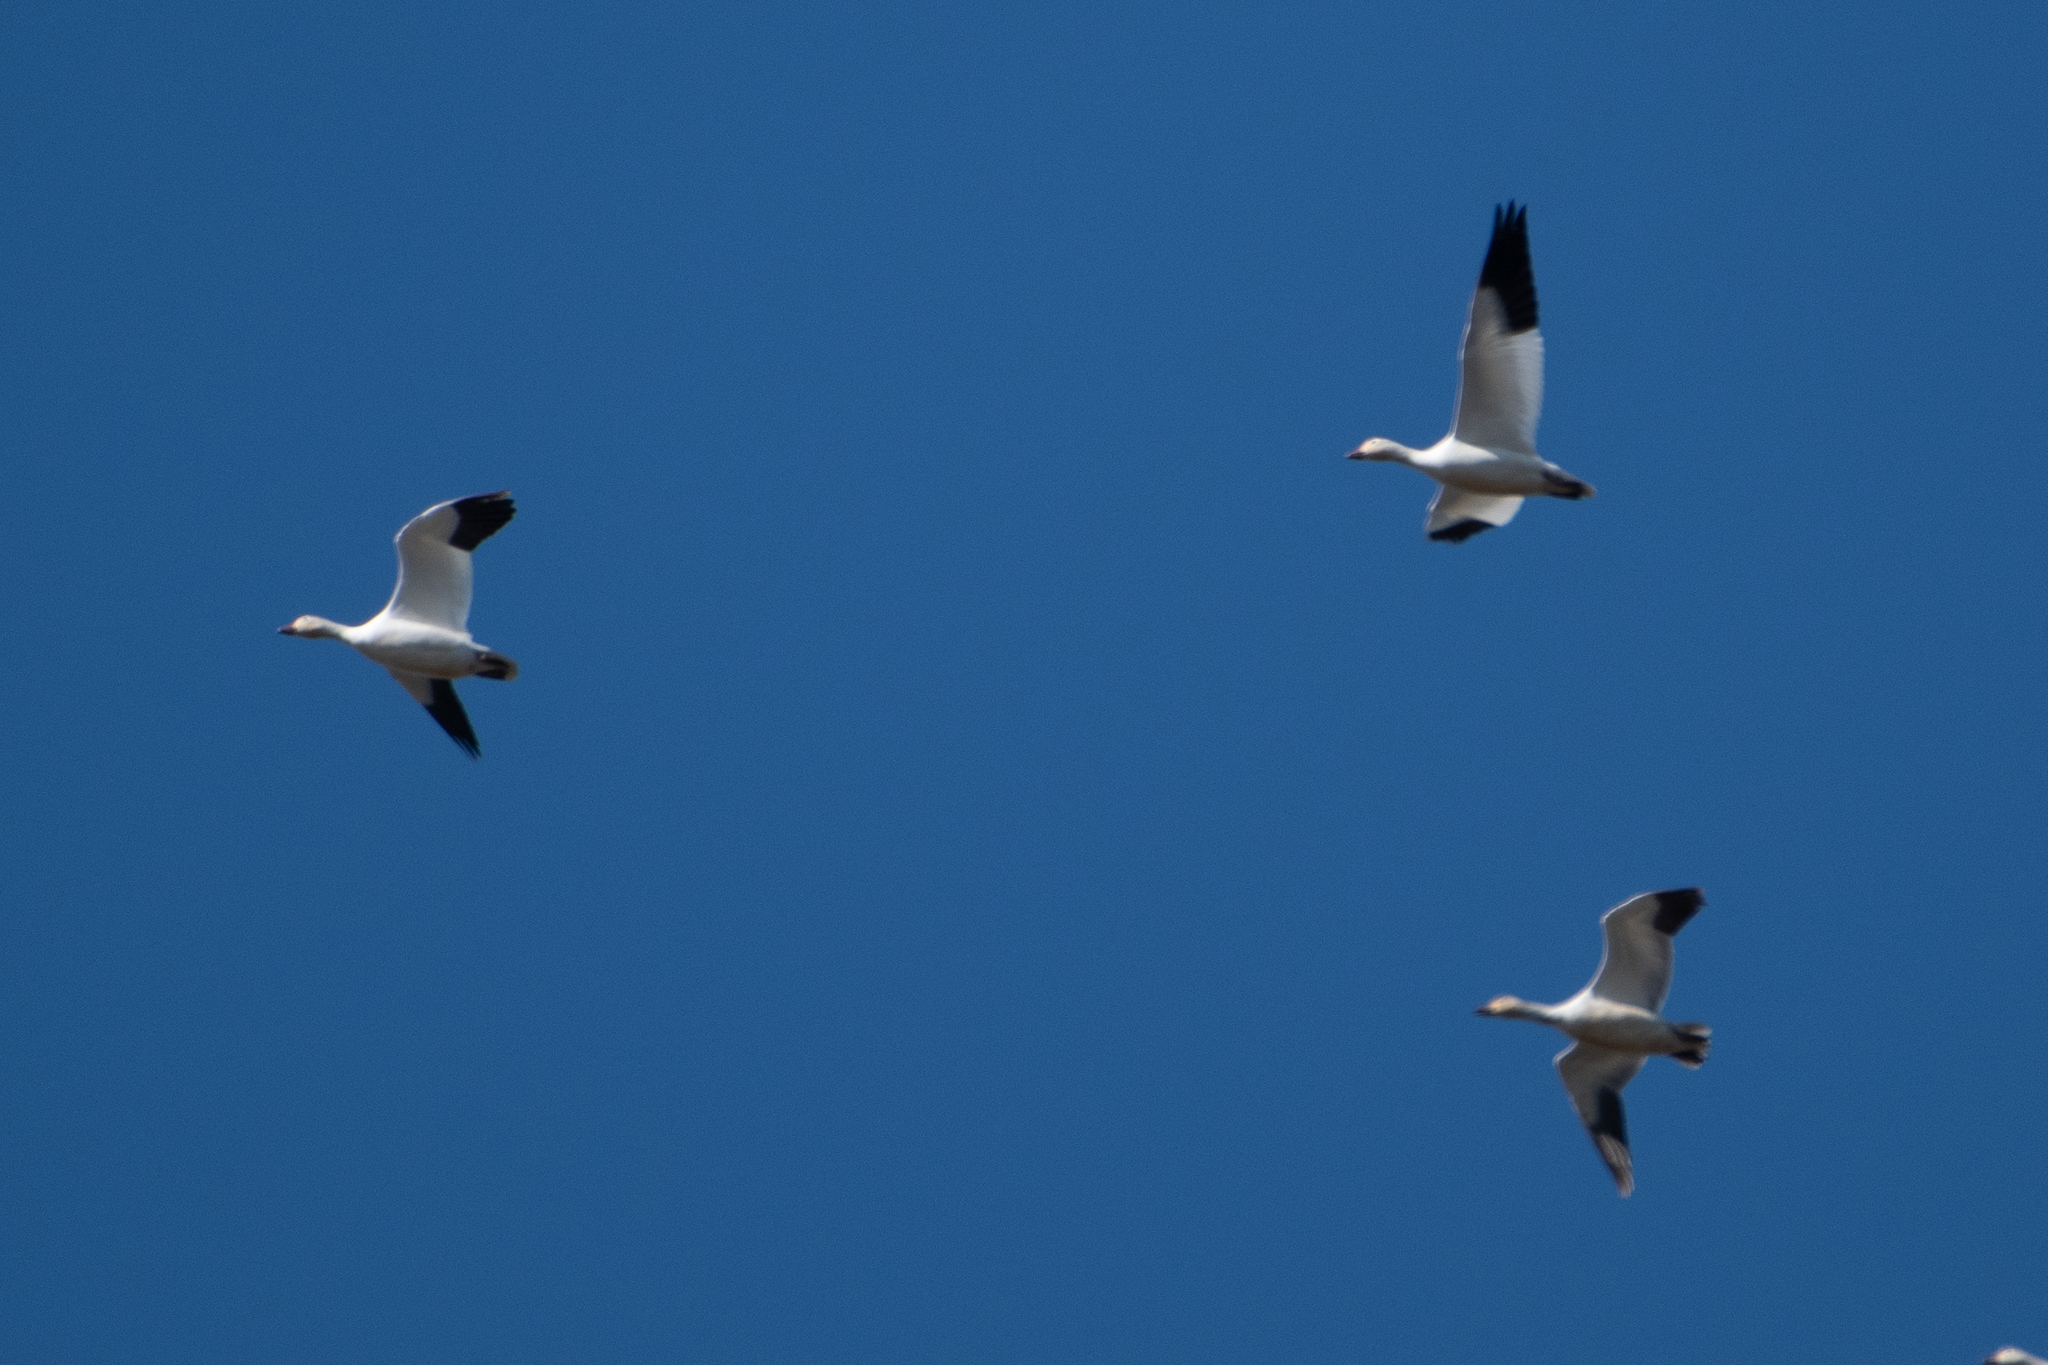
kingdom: Animalia
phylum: Chordata
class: Aves
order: Anseriformes
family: Anatidae
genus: Anser
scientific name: Anser caerulescens
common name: Snow goose
